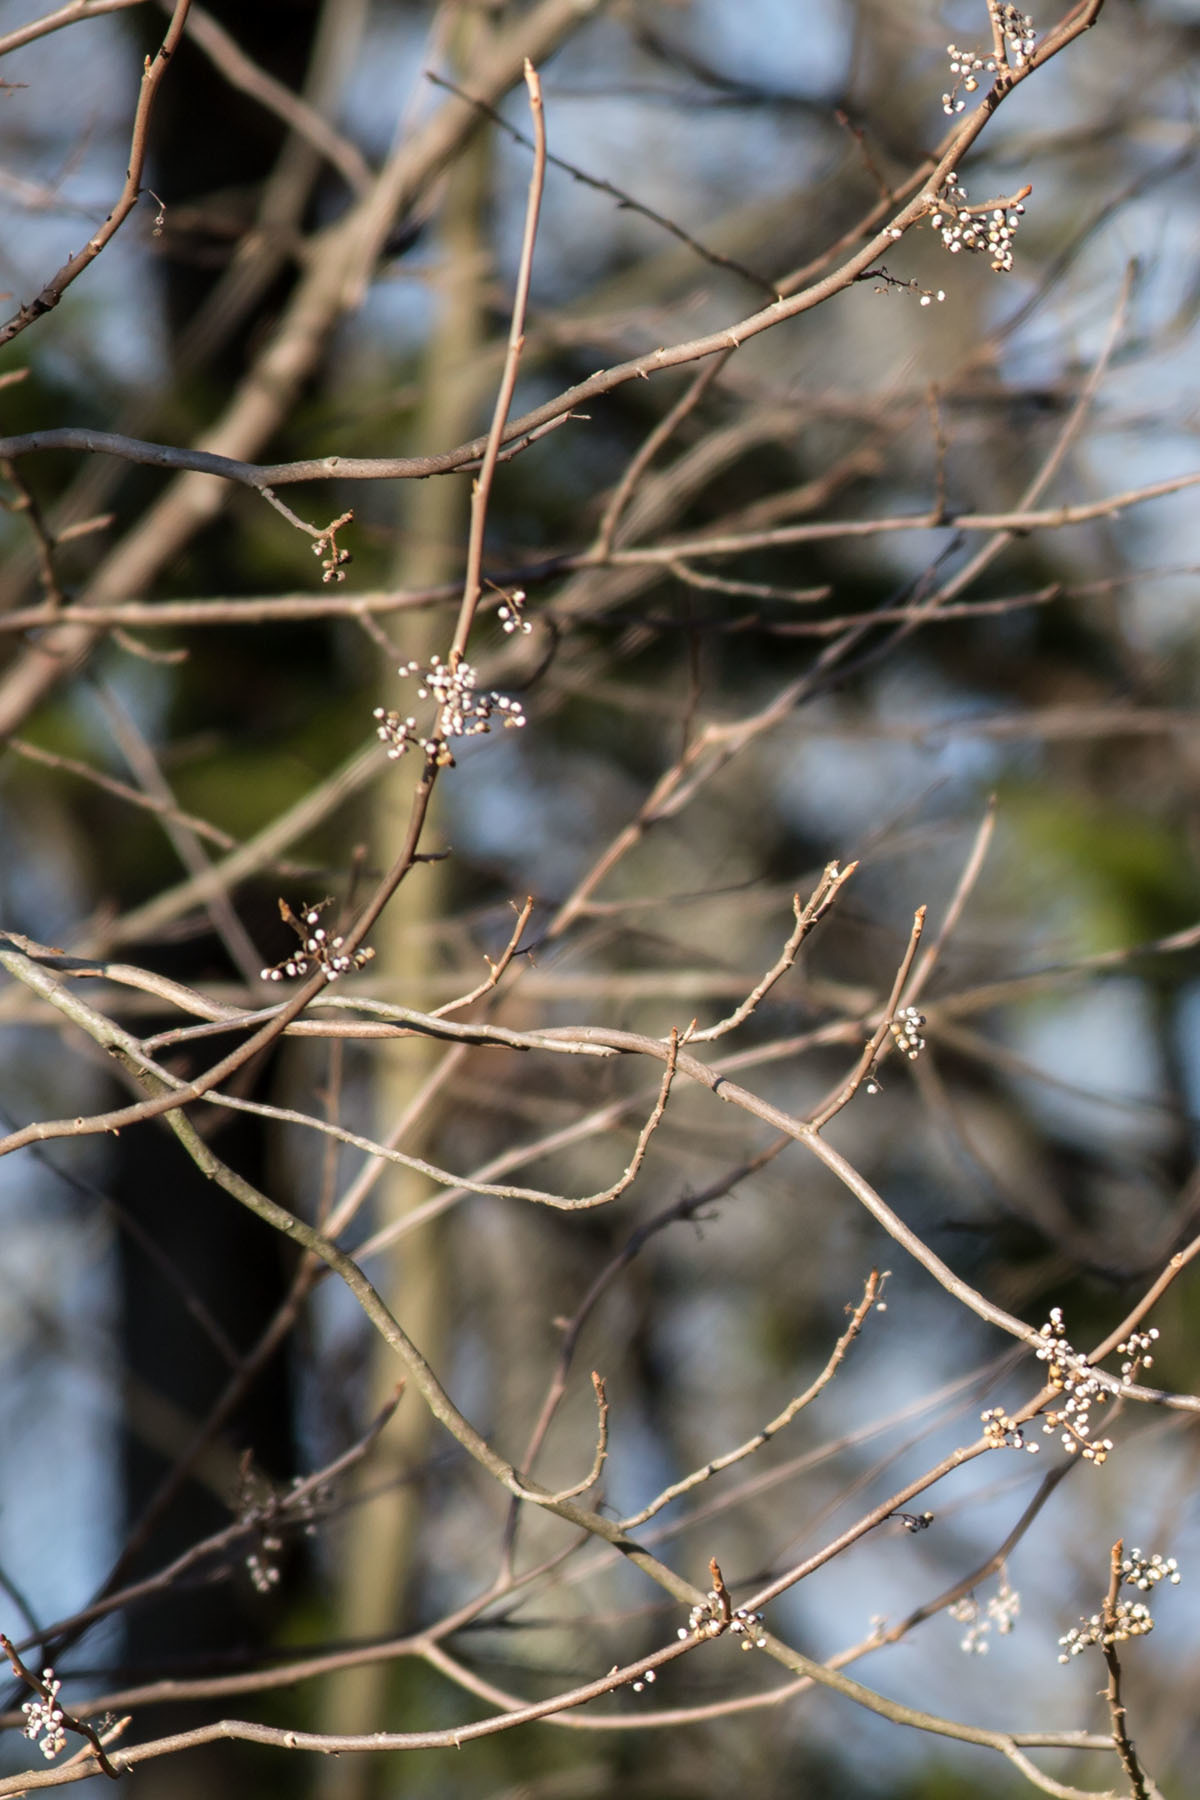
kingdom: Plantae
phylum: Tracheophyta
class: Magnoliopsida
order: Sapindales
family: Anacardiaceae
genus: Toxicodendron
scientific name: Toxicodendron radicans
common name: Poison ivy
